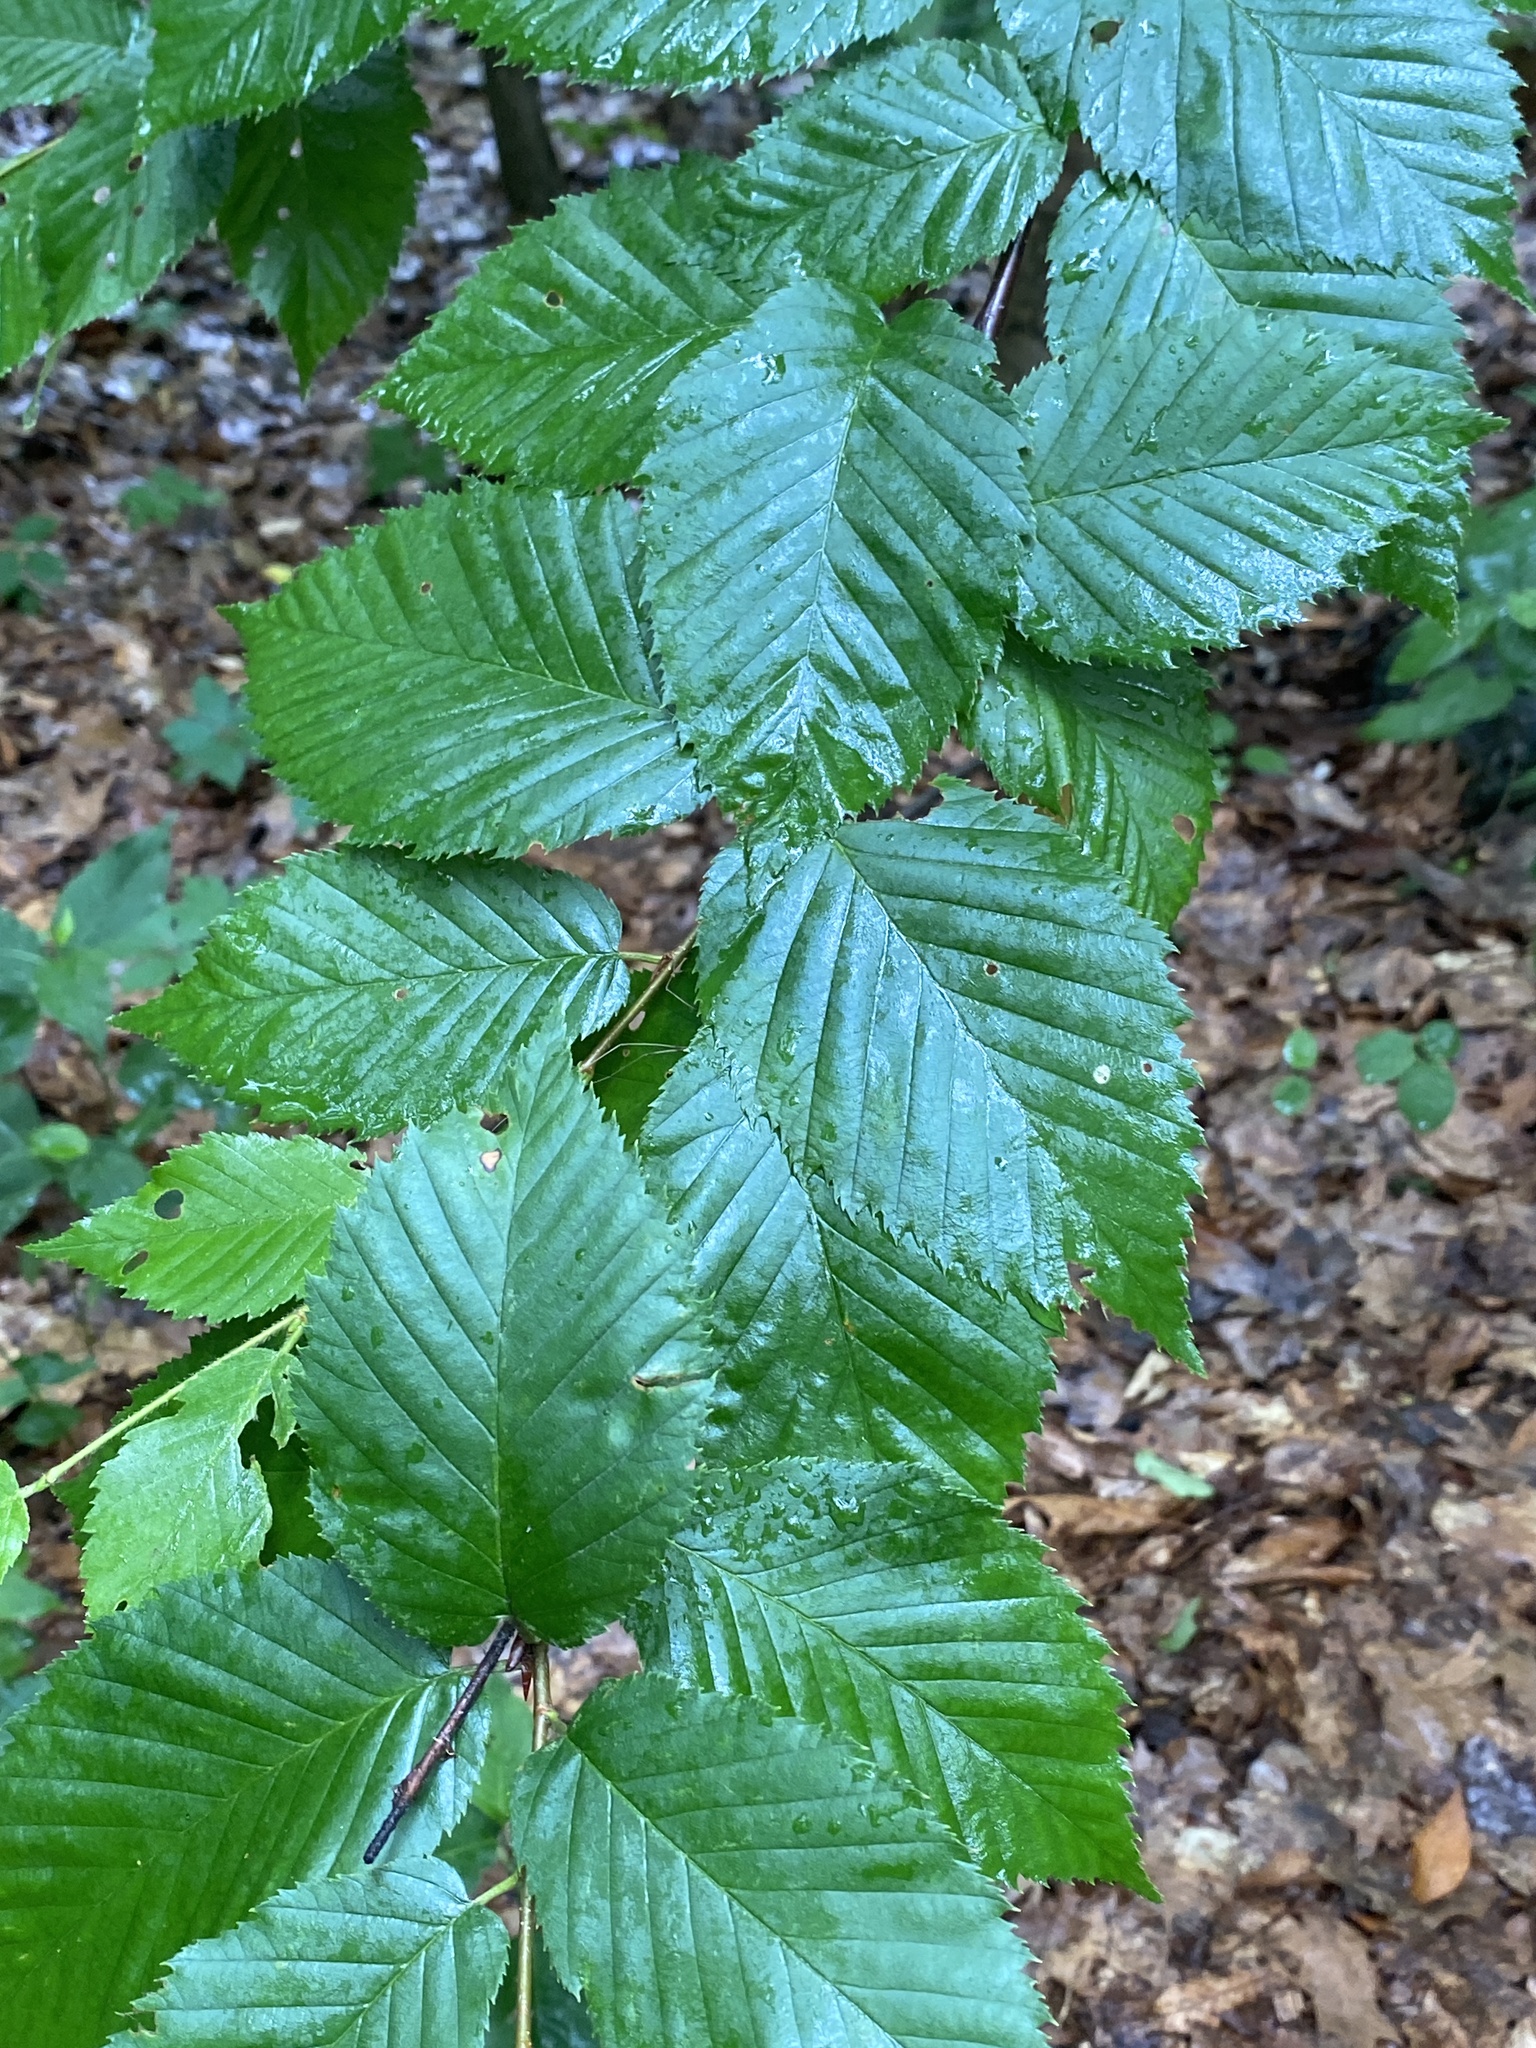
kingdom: Plantae
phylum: Tracheophyta
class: Magnoliopsida
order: Fagales
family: Betulaceae
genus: Betula
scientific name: Betula alleghaniensis
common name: Yellow birch
